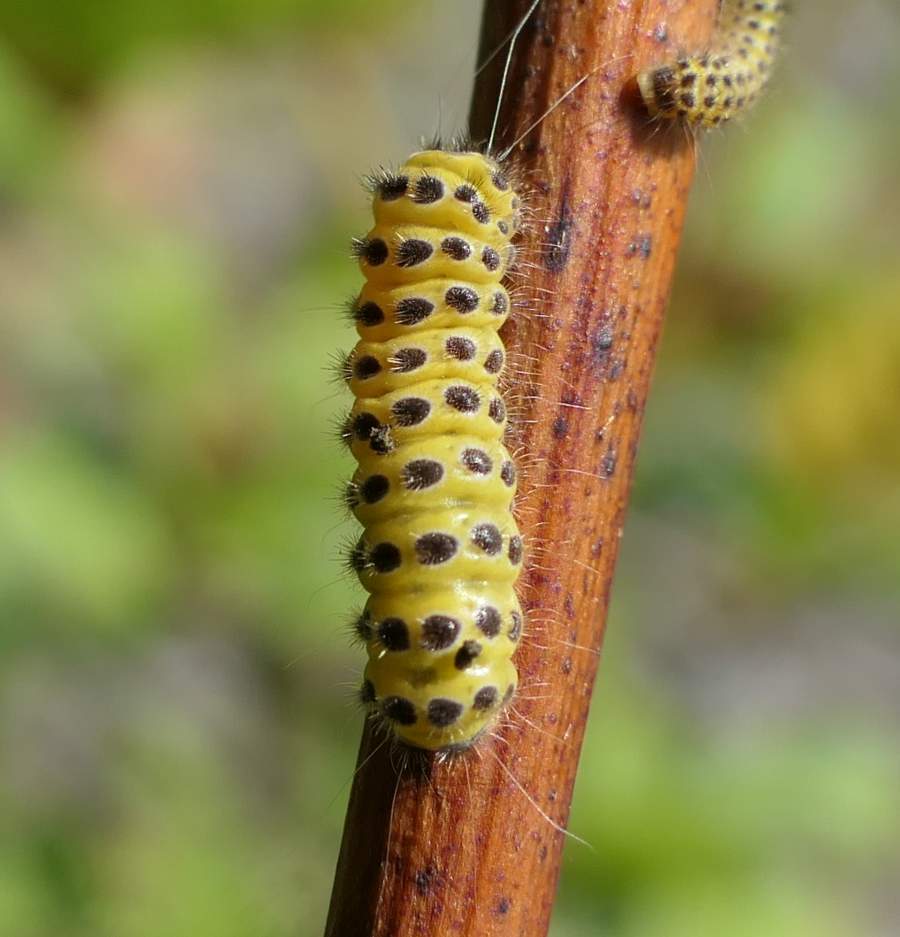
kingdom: Animalia
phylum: Arthropoda
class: Insecta
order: Lepidoptera
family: Zygaenidae
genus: Harrisina
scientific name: Harrisina americana
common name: Grapeleaf skeletonizer moth
